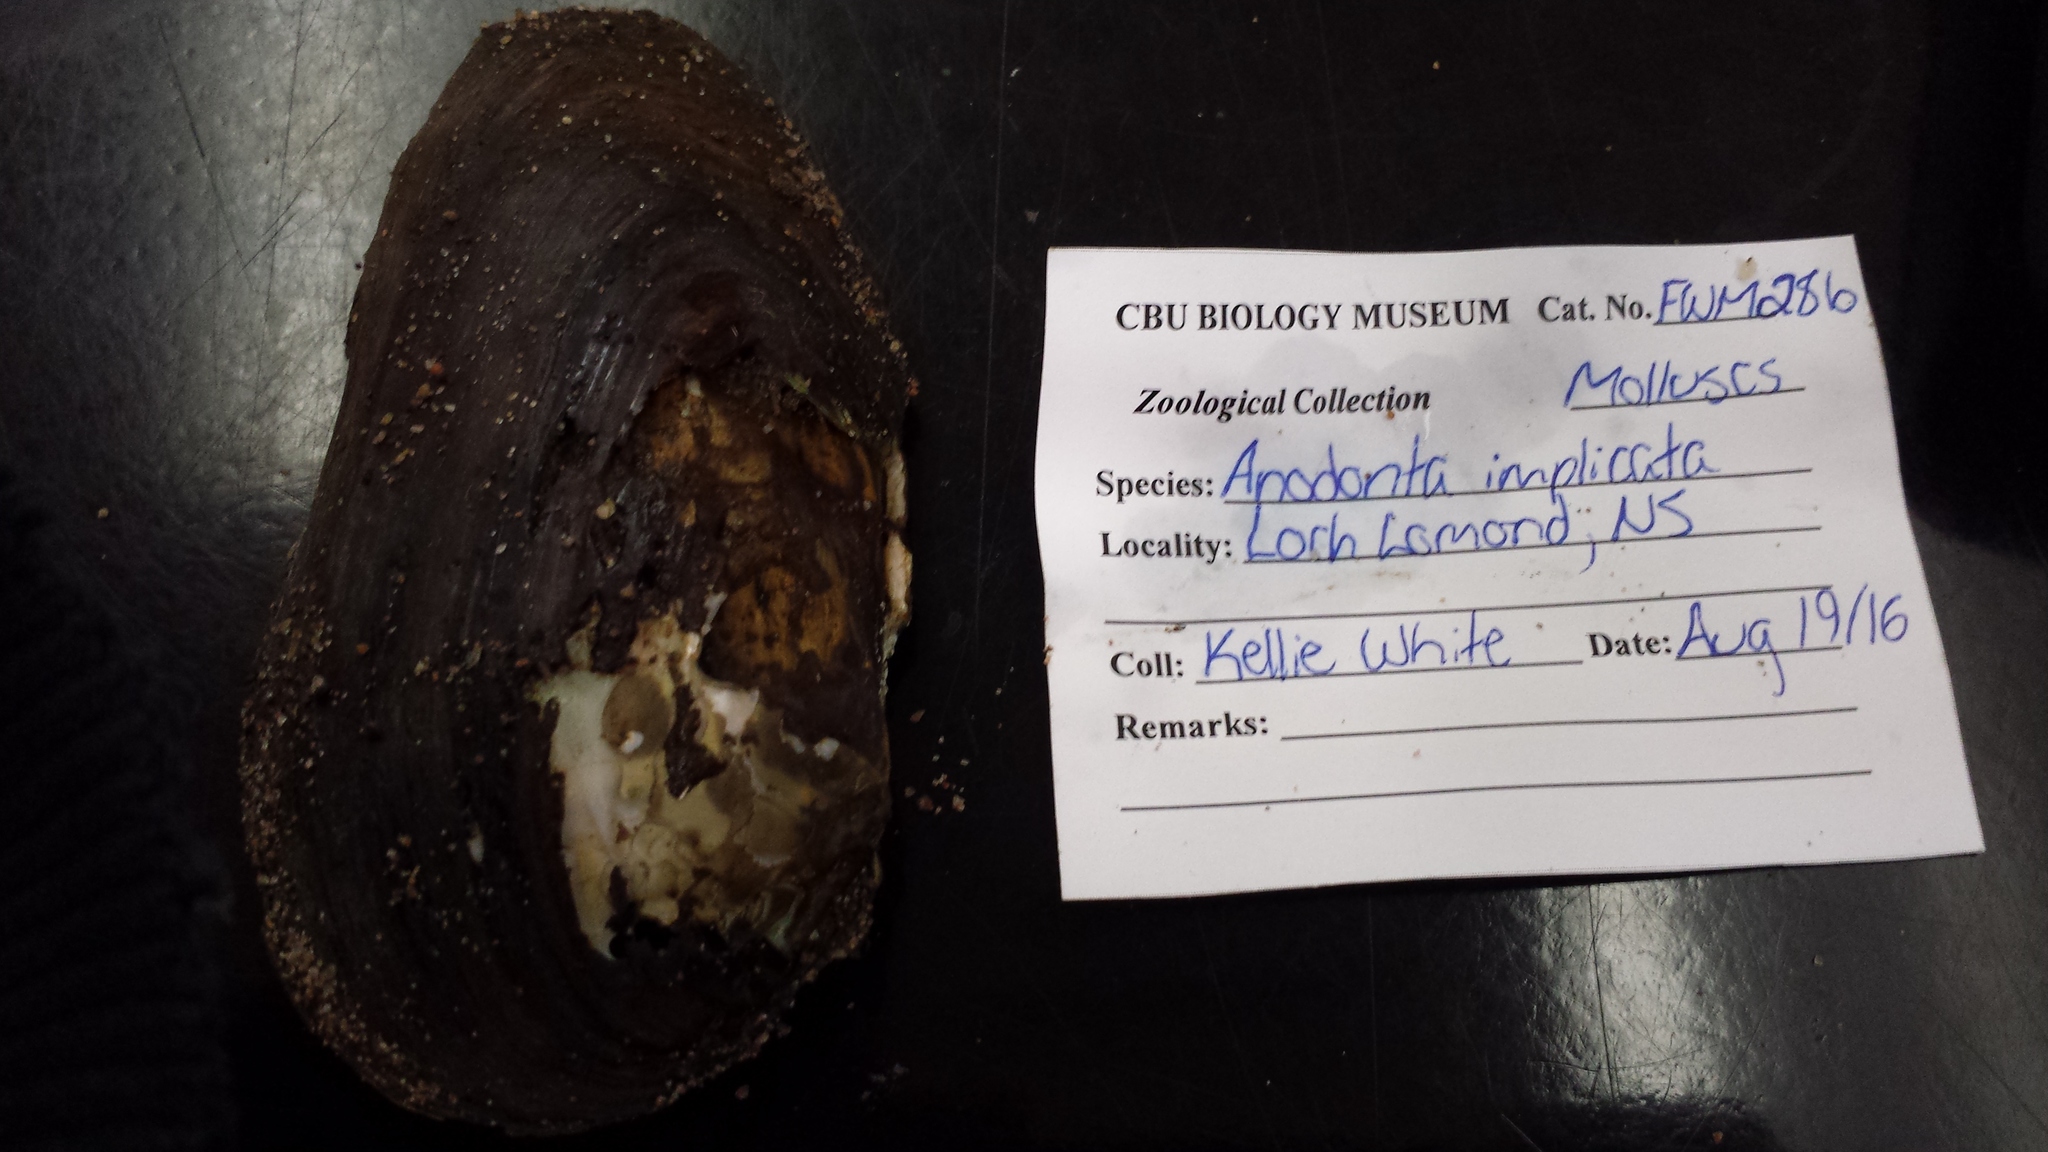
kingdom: Animalia
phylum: Mollusca
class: Bivalvia
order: Unionida
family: Unionidae
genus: Utterbackiana
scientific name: Utterbackiana implicata
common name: Alewife floater
